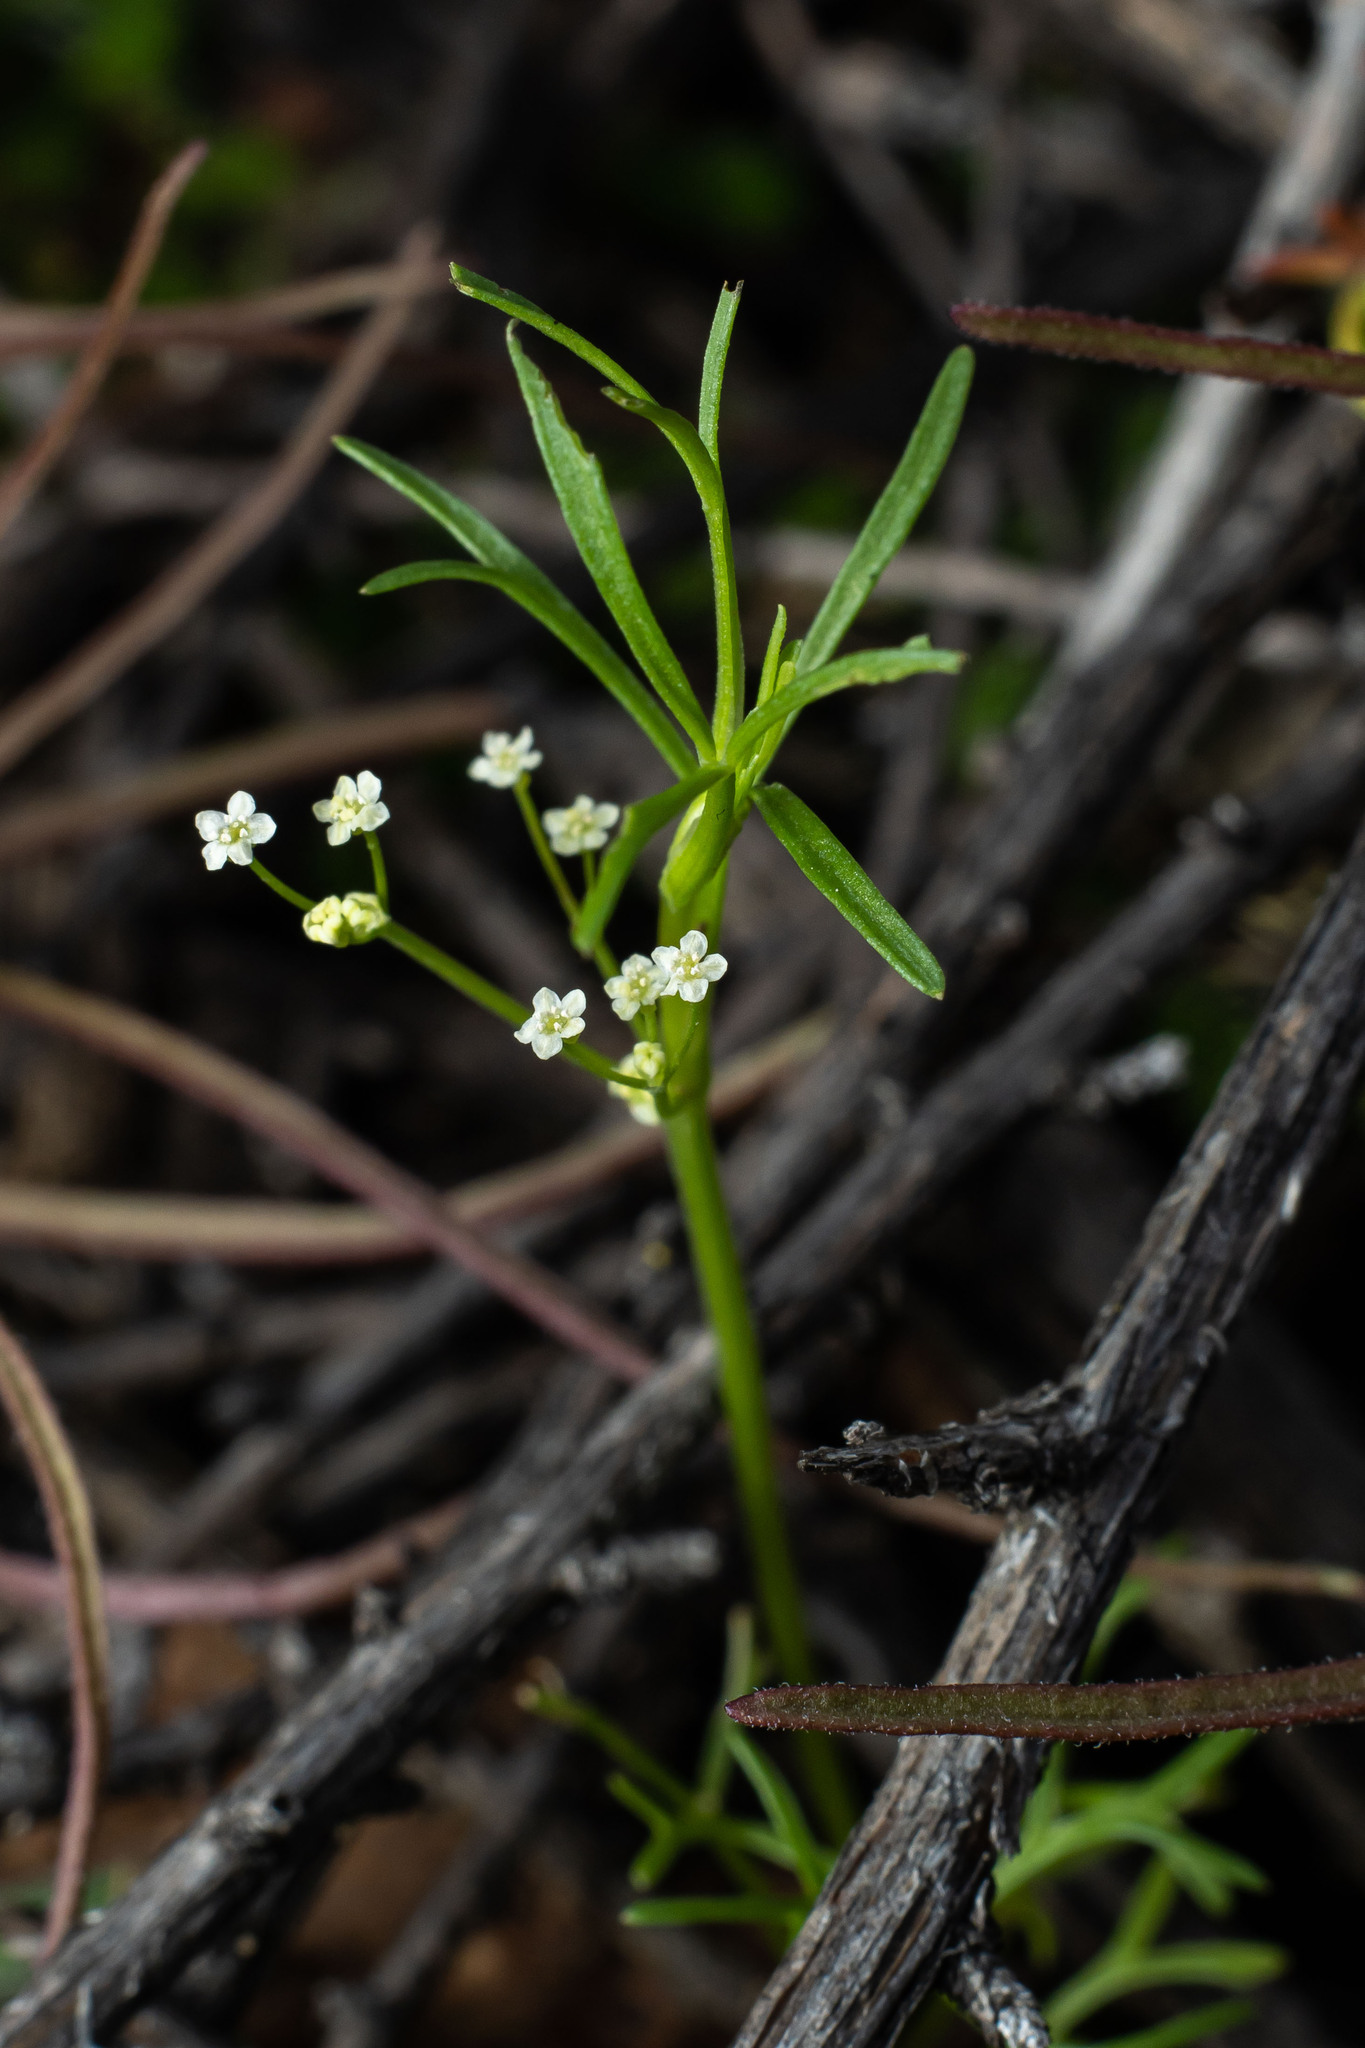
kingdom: Plantae
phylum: Tracheophyta
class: Magnoliopsida
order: Apiales
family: Apiaceae
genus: Apiastrum
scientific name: Apiastrum angustifolium
